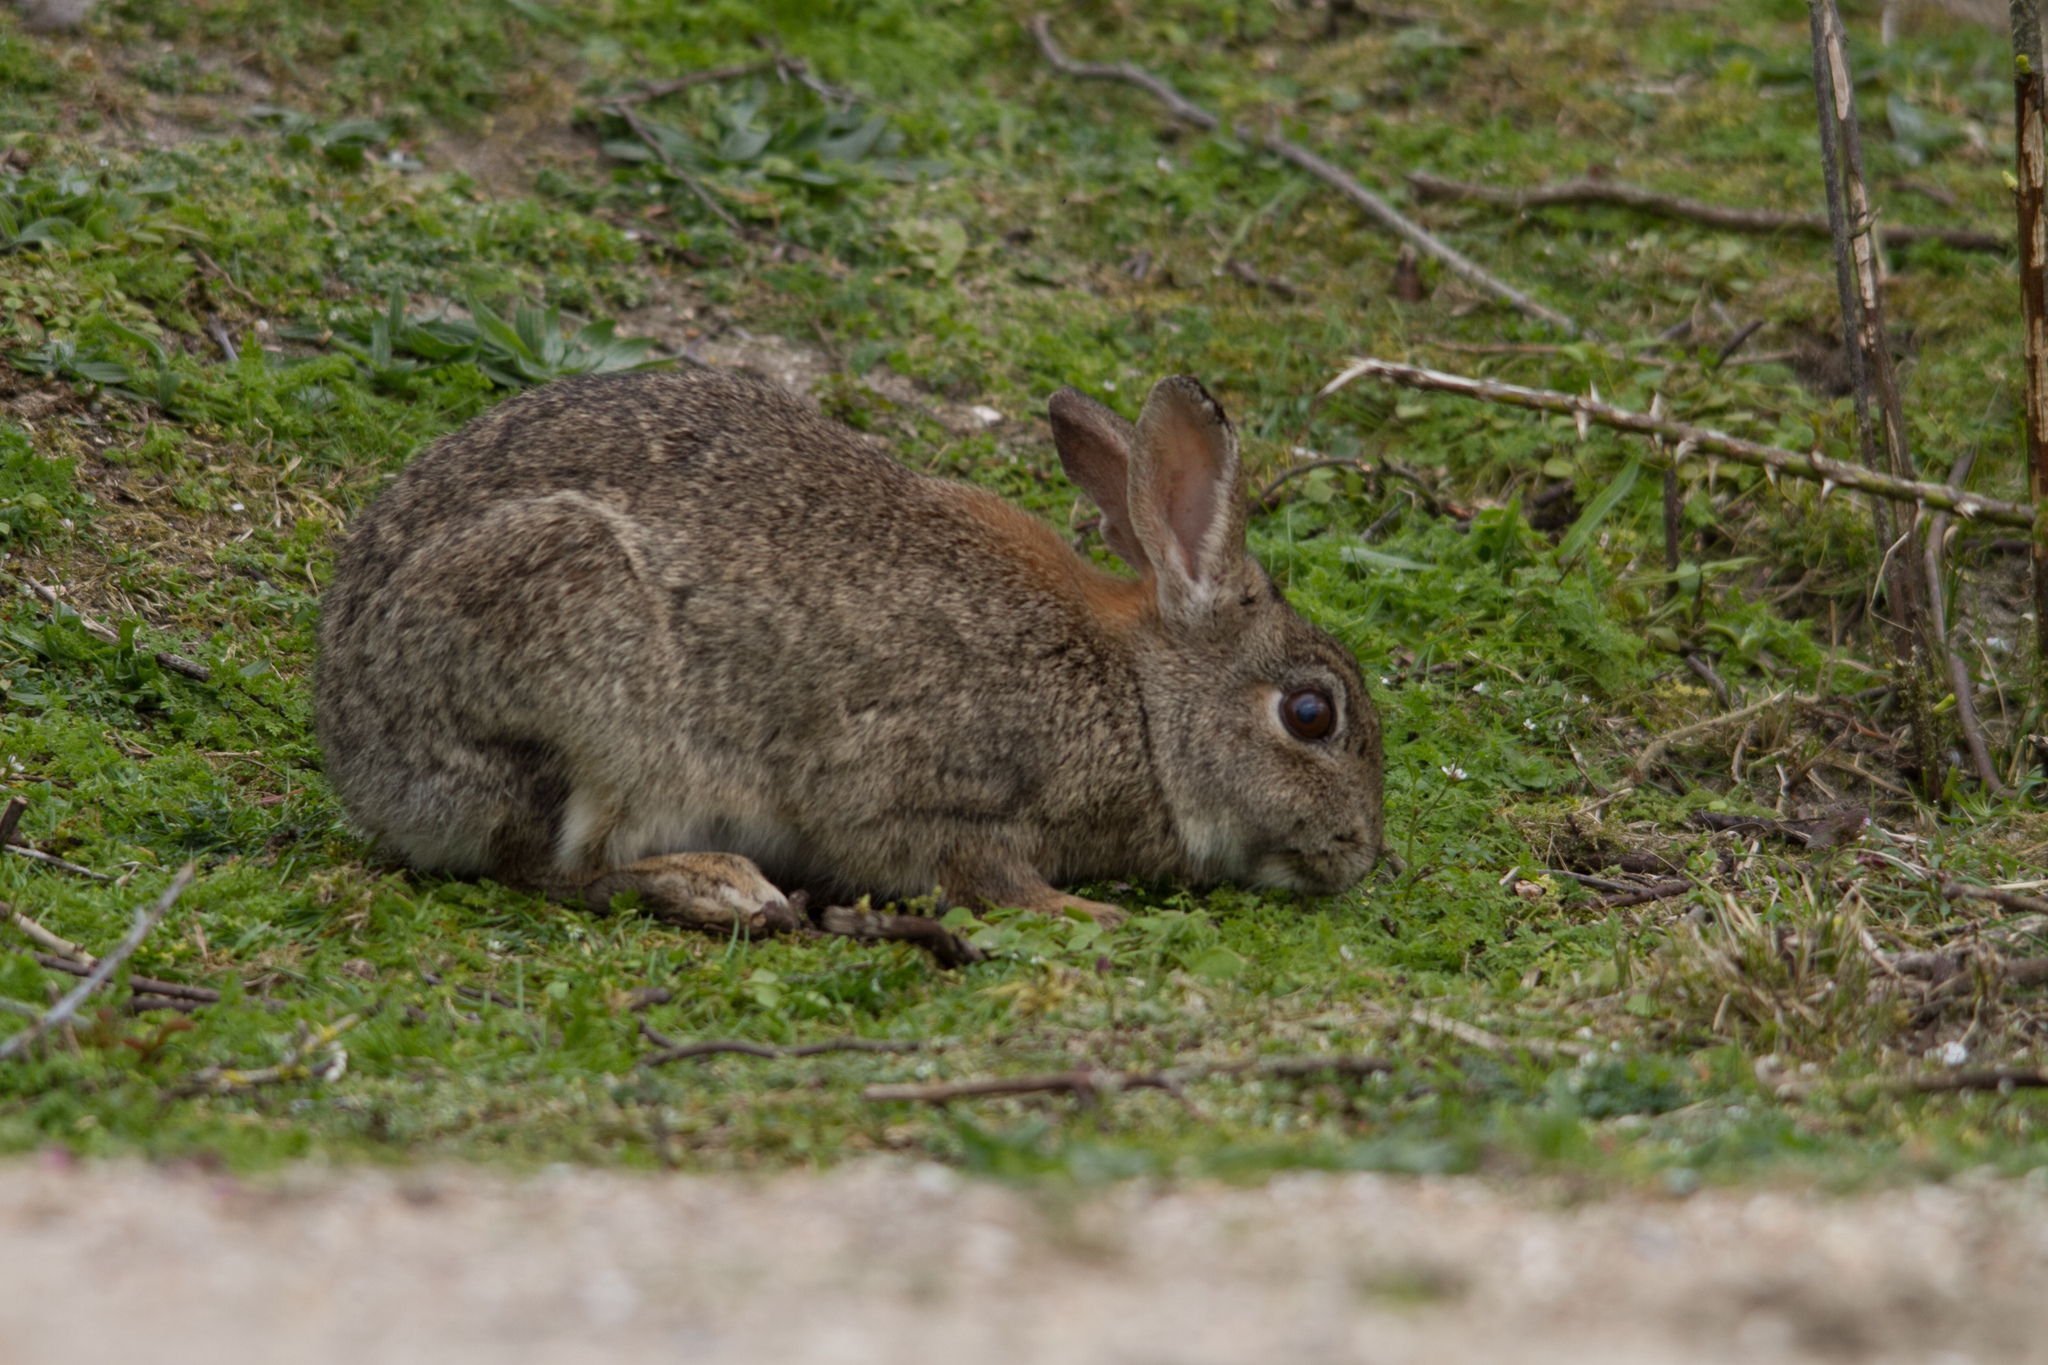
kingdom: Animalia
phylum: Chordata
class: Mammalia
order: Lagomorpha
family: Leporidae
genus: Oryctolagus
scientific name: Oryctolagus cuniculus
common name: European rabbit
